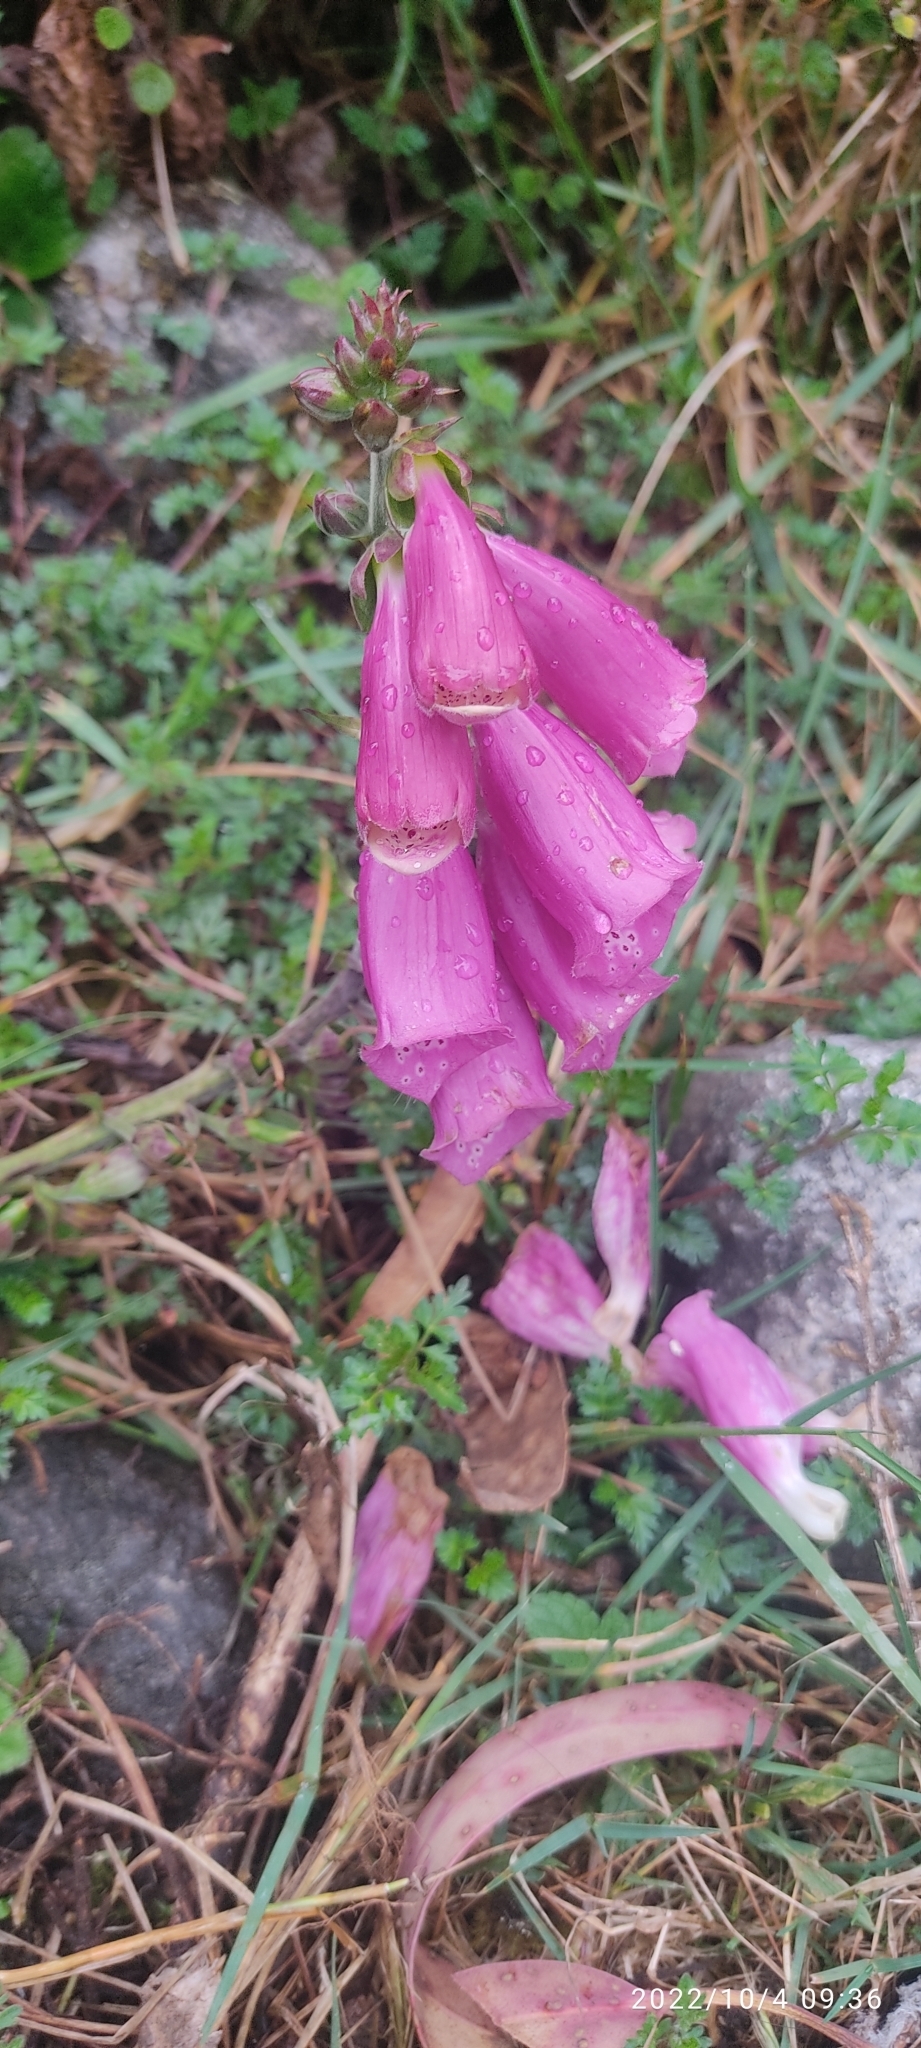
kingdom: Plantae
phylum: Tracheophyta
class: Magnoliopsida
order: Lamiales
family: Plantaginaceae
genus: Digitalis
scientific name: Digitalis purpurea
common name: Foxglove
